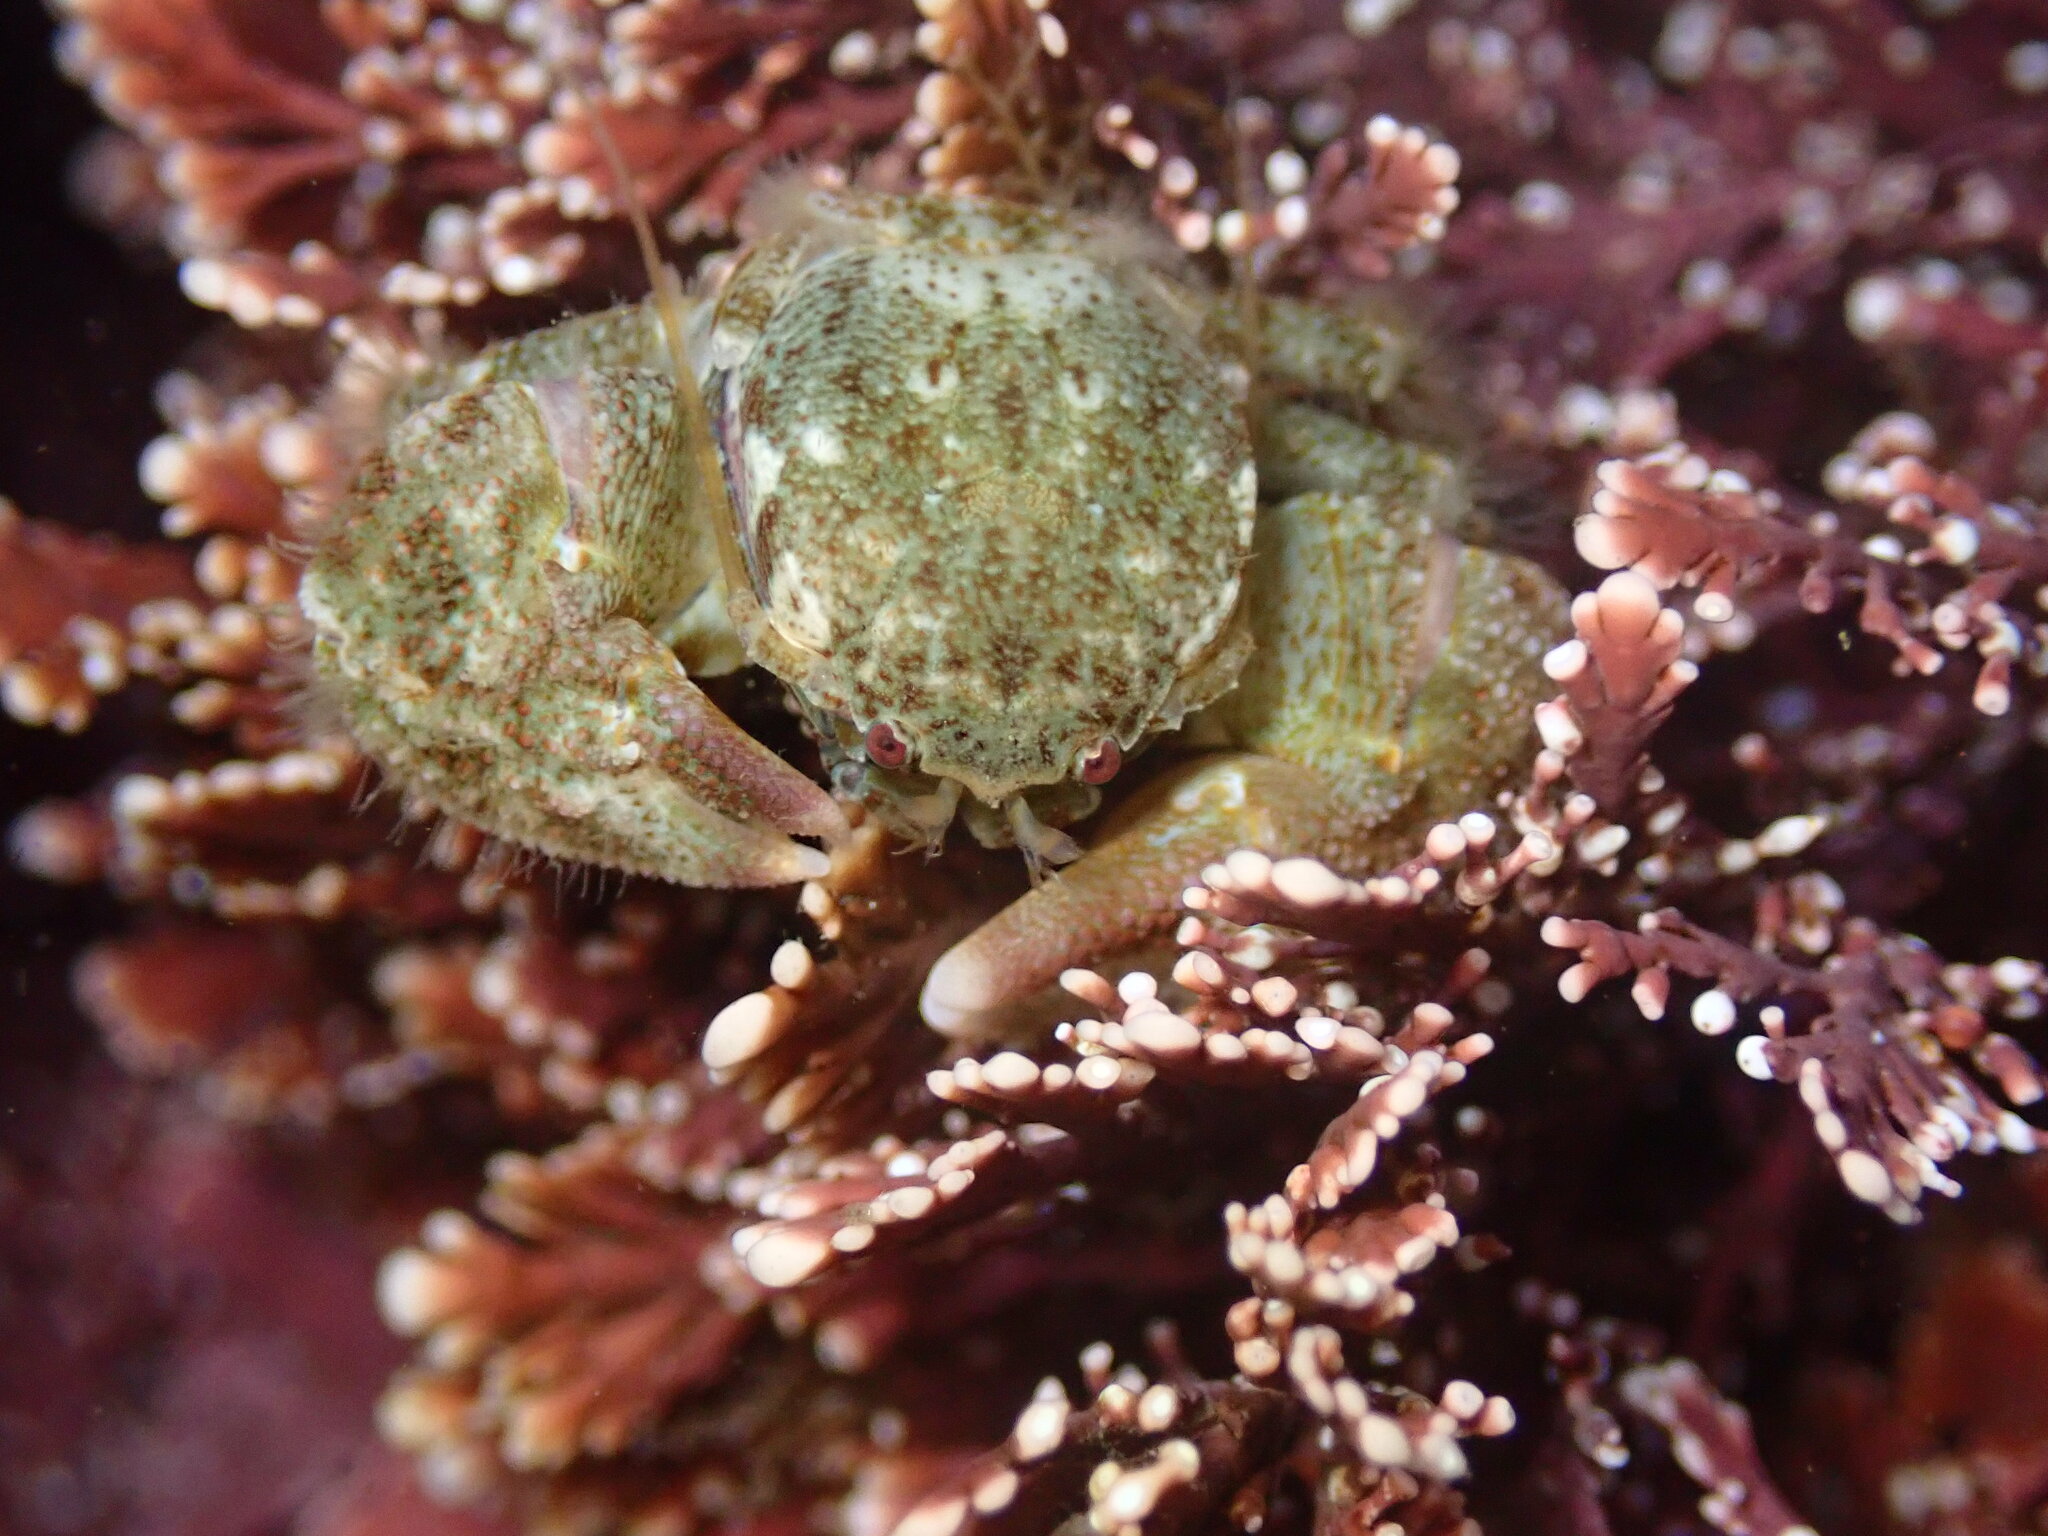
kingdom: Animalia
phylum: Arthropoda
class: Malacostraca
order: Decapoda
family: Porcellanidae
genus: Pachycheles
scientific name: Pachycheles rudis
